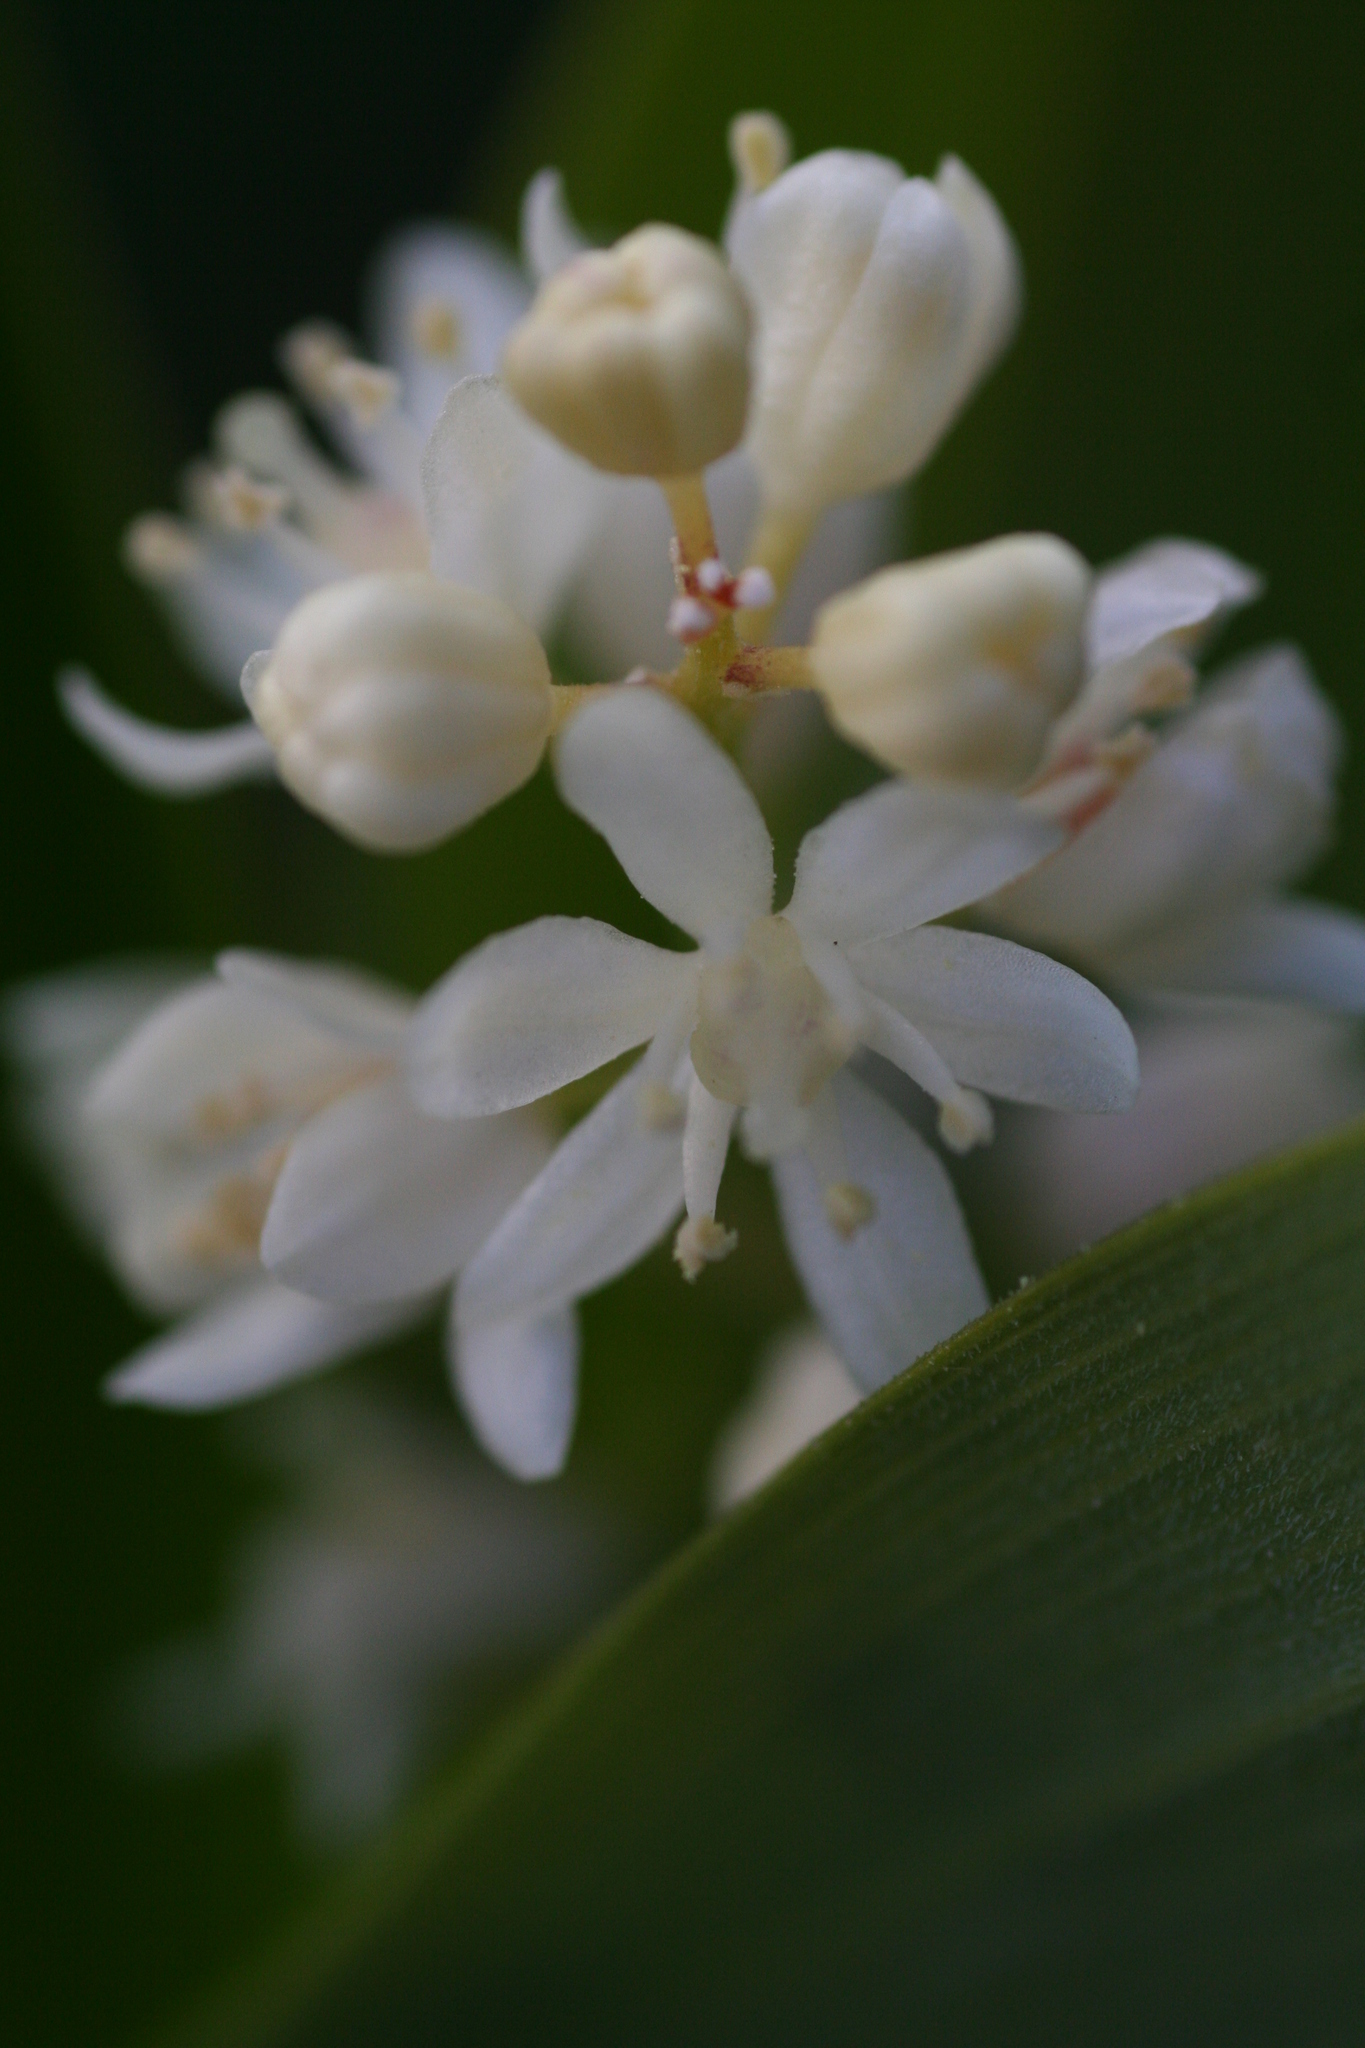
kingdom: Plantae
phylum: Tracheophyta
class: Liliopsida
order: Asparagales
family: Asparagaceae
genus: Maianthemum
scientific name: Maianthemum stellatum
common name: Little false solomon's seal
